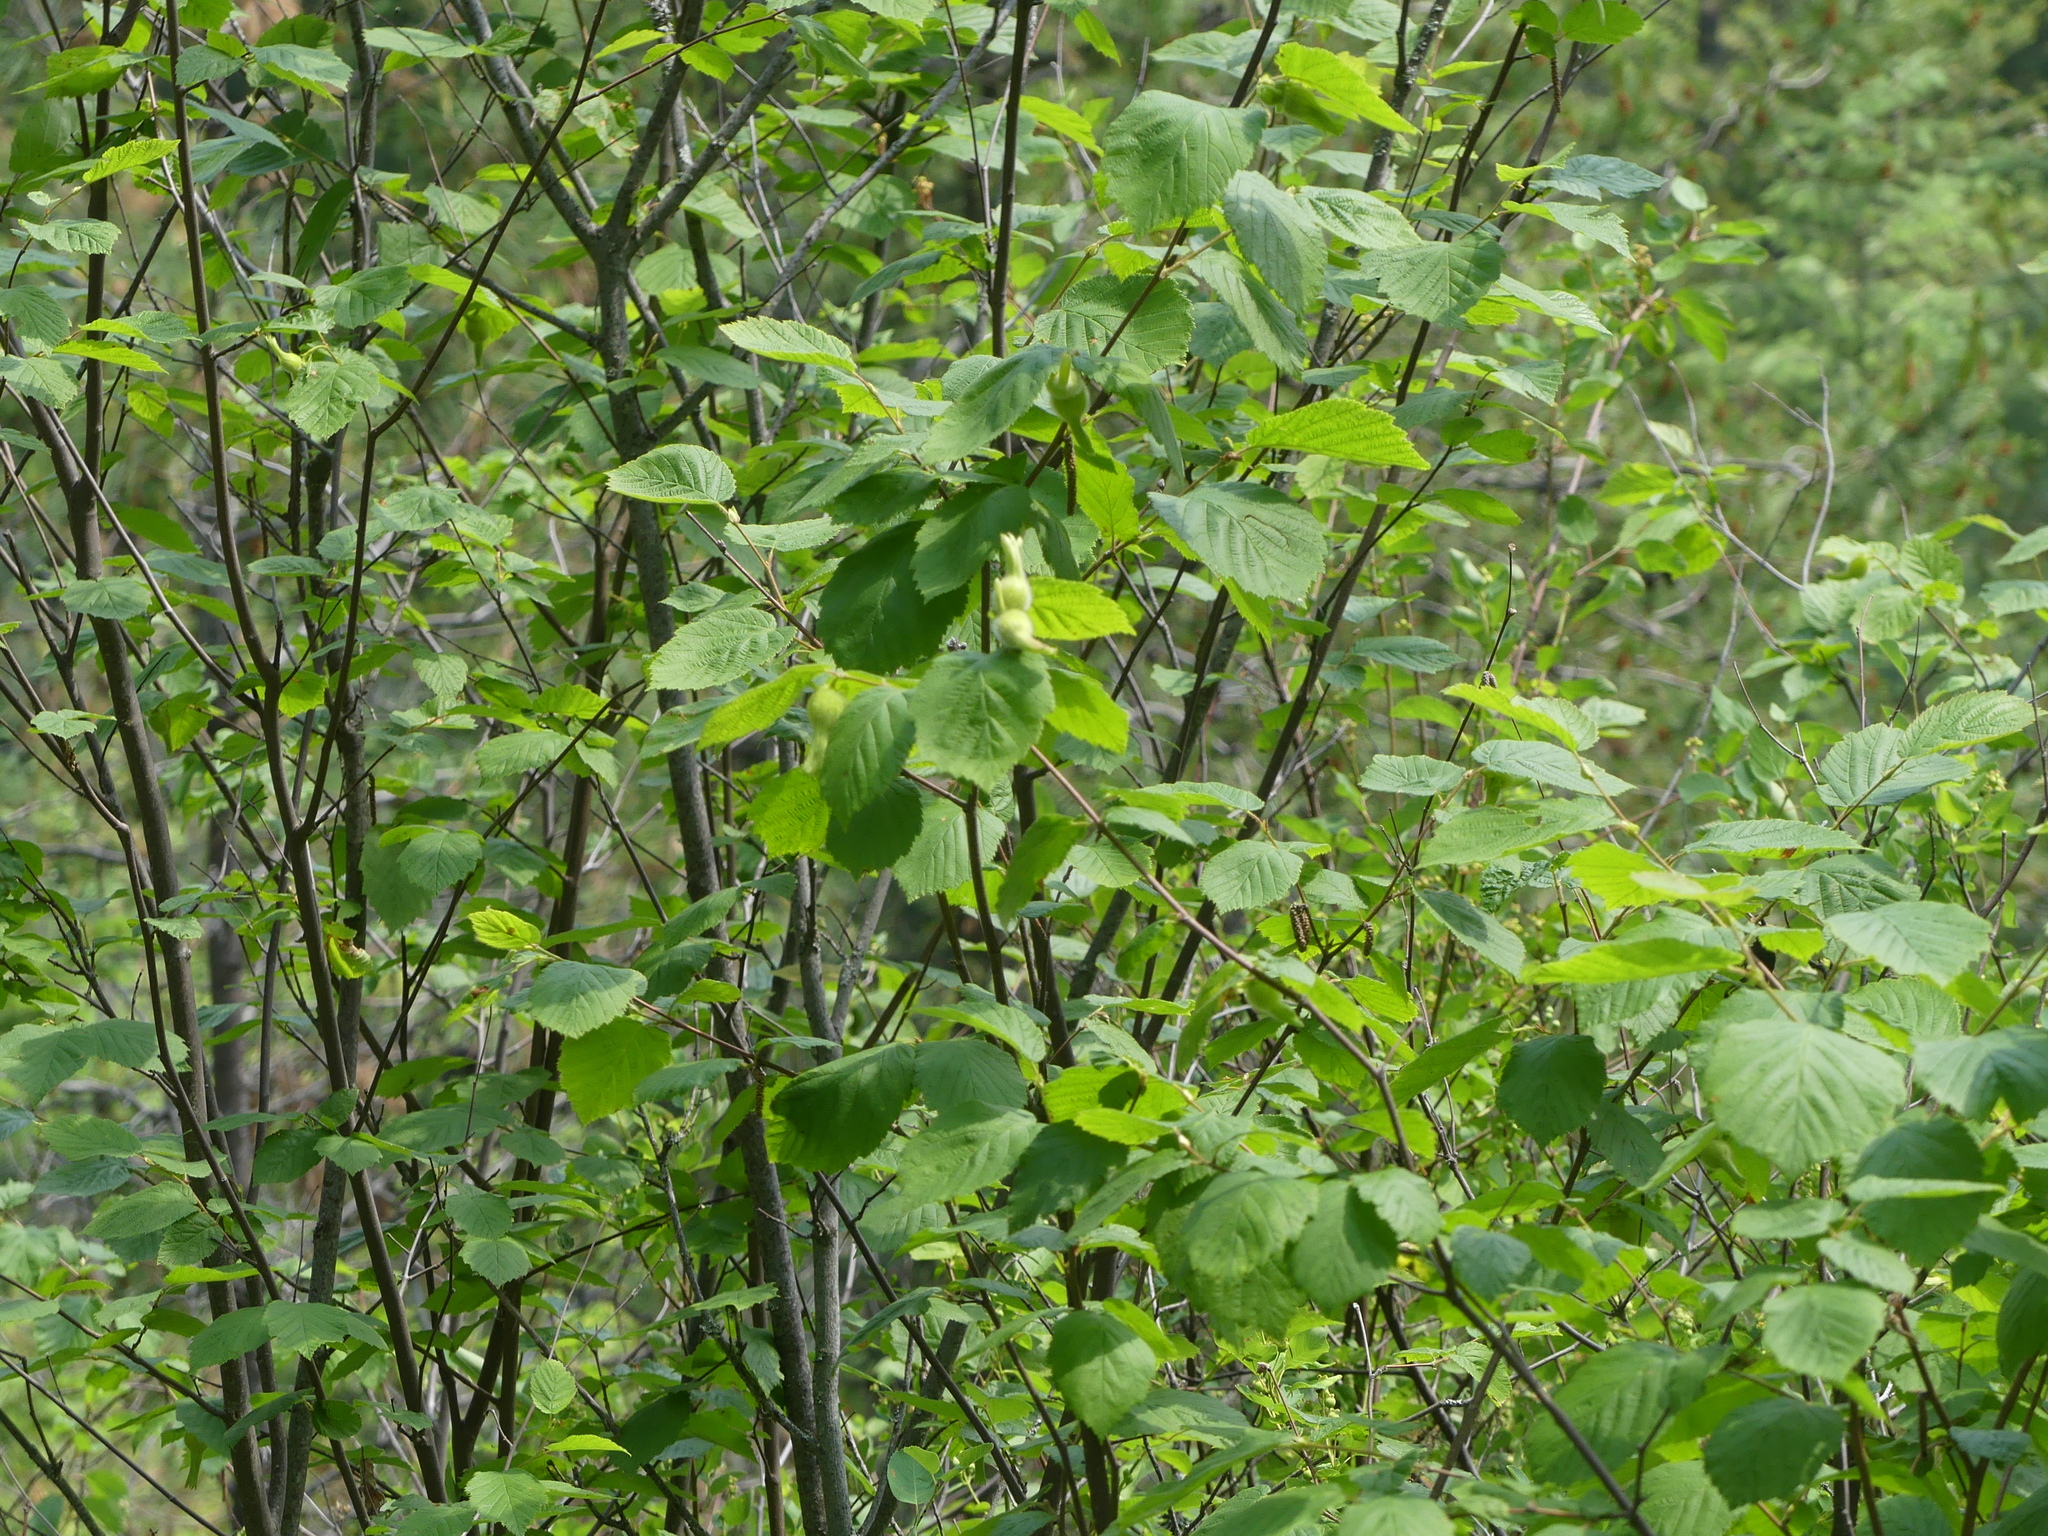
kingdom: Plantae
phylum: Tracheophyta
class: Magnoliopsida
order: Fagales
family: Betulaceae
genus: Corylus
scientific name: Corylus cornuta
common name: Beaked hazel
